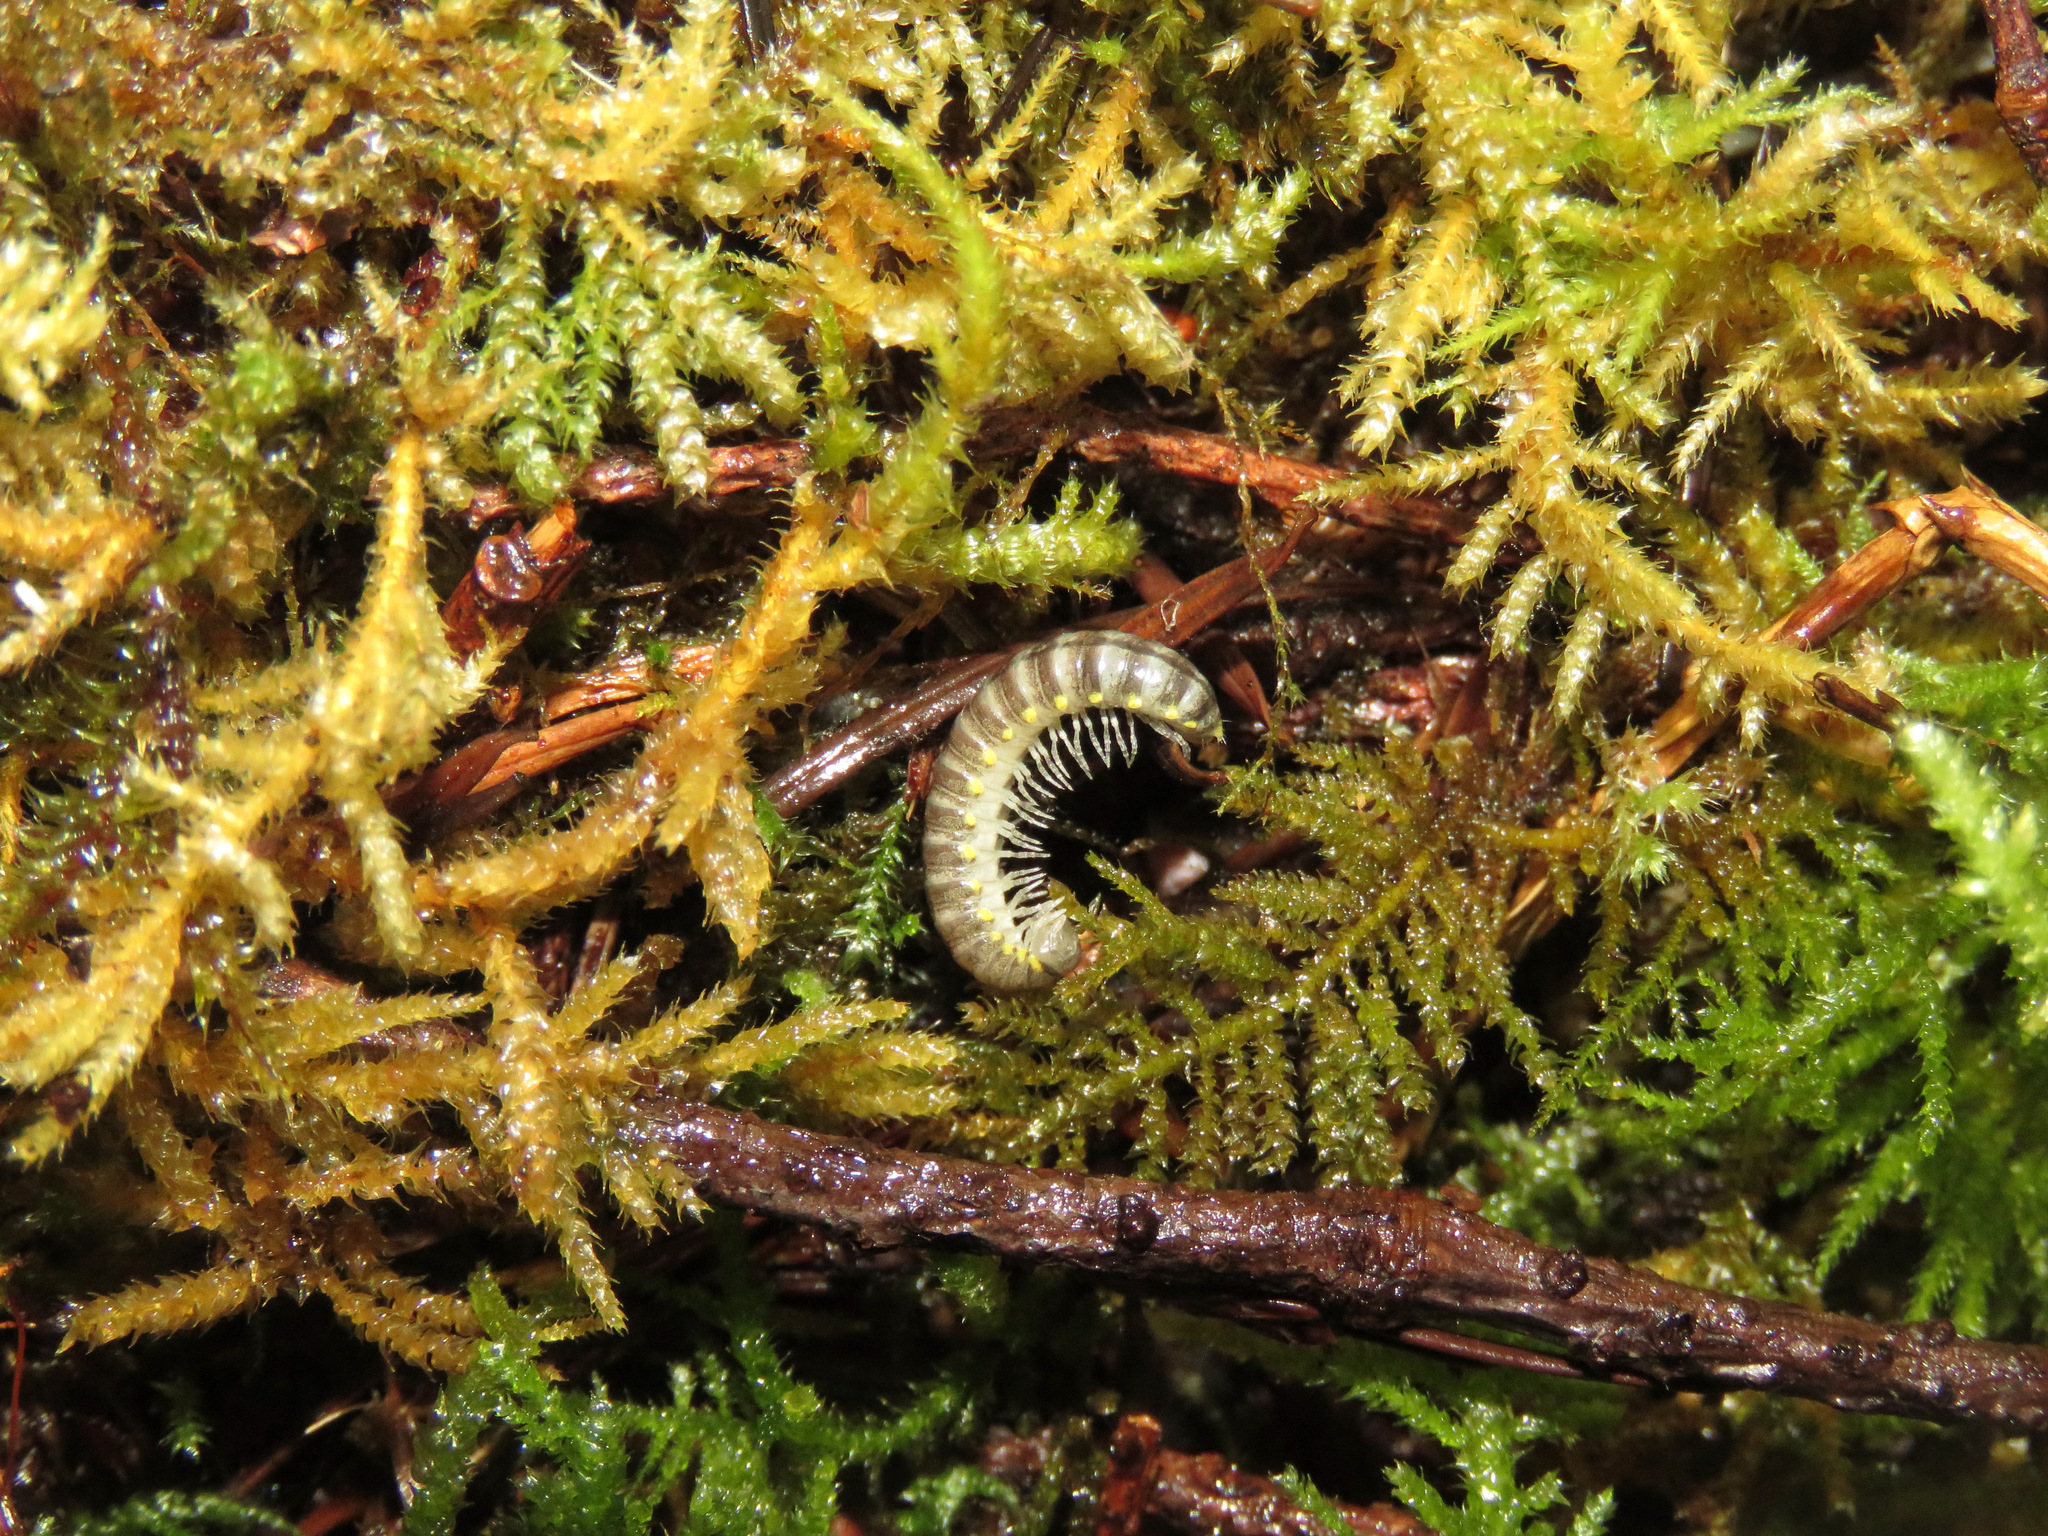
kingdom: Animalia
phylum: Arthropoda
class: Diplopoda
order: Polydesmida
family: Xystodesmidae
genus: Harpaphe
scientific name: Harpaphe haydeniana
